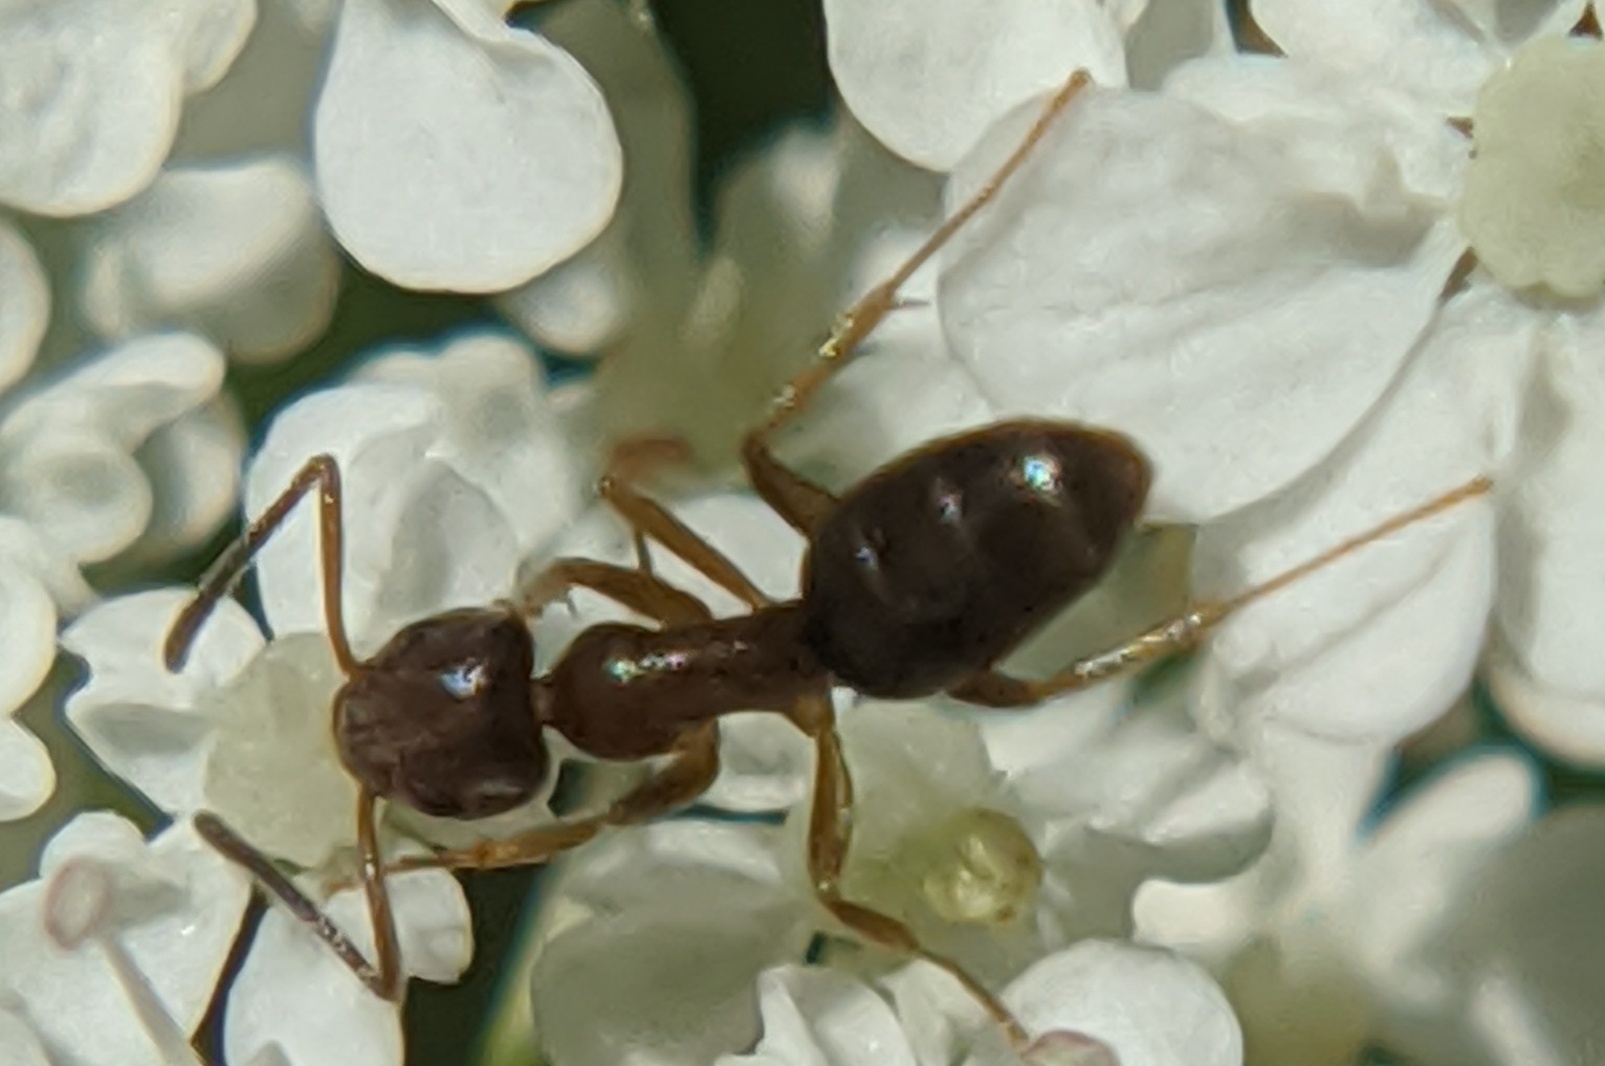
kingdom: Animalia
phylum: Arthropoda
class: Insecta
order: Hymenoptera
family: Formicidae
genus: Tapinoma
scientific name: Tapinoma sessile
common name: Odorous house ant
